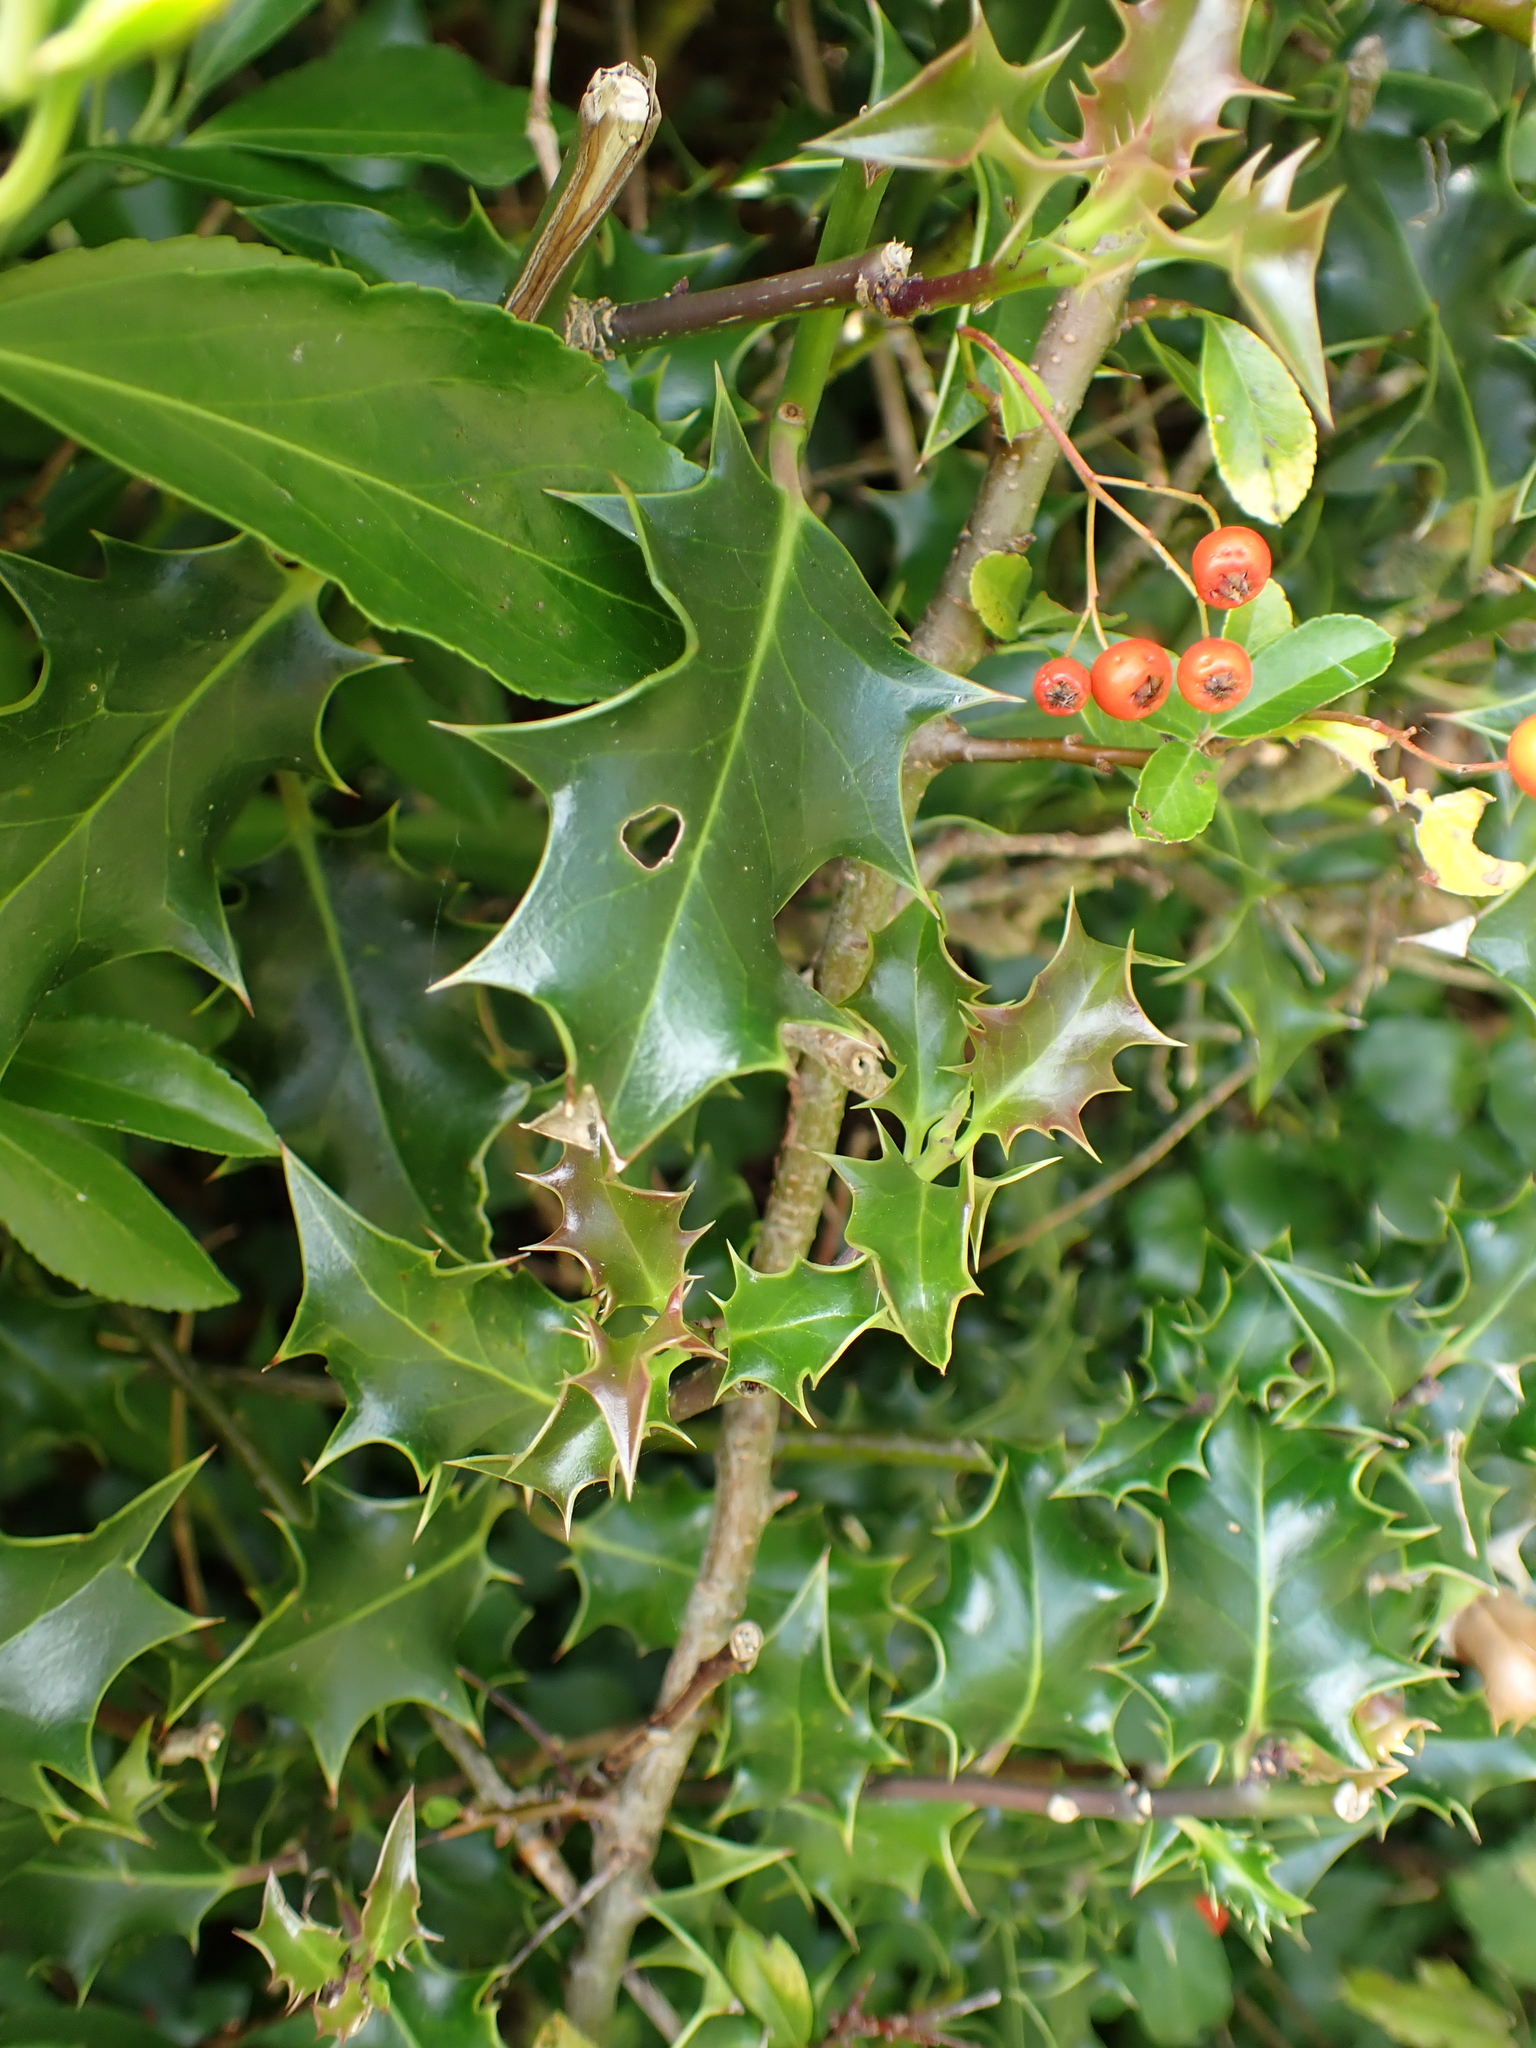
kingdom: Plantae
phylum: Tracheophyta
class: Magnoliopsida
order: Aquifoliales
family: Aquifoliaceae
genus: Ilex
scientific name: Ilex aquifolium
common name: English holly
